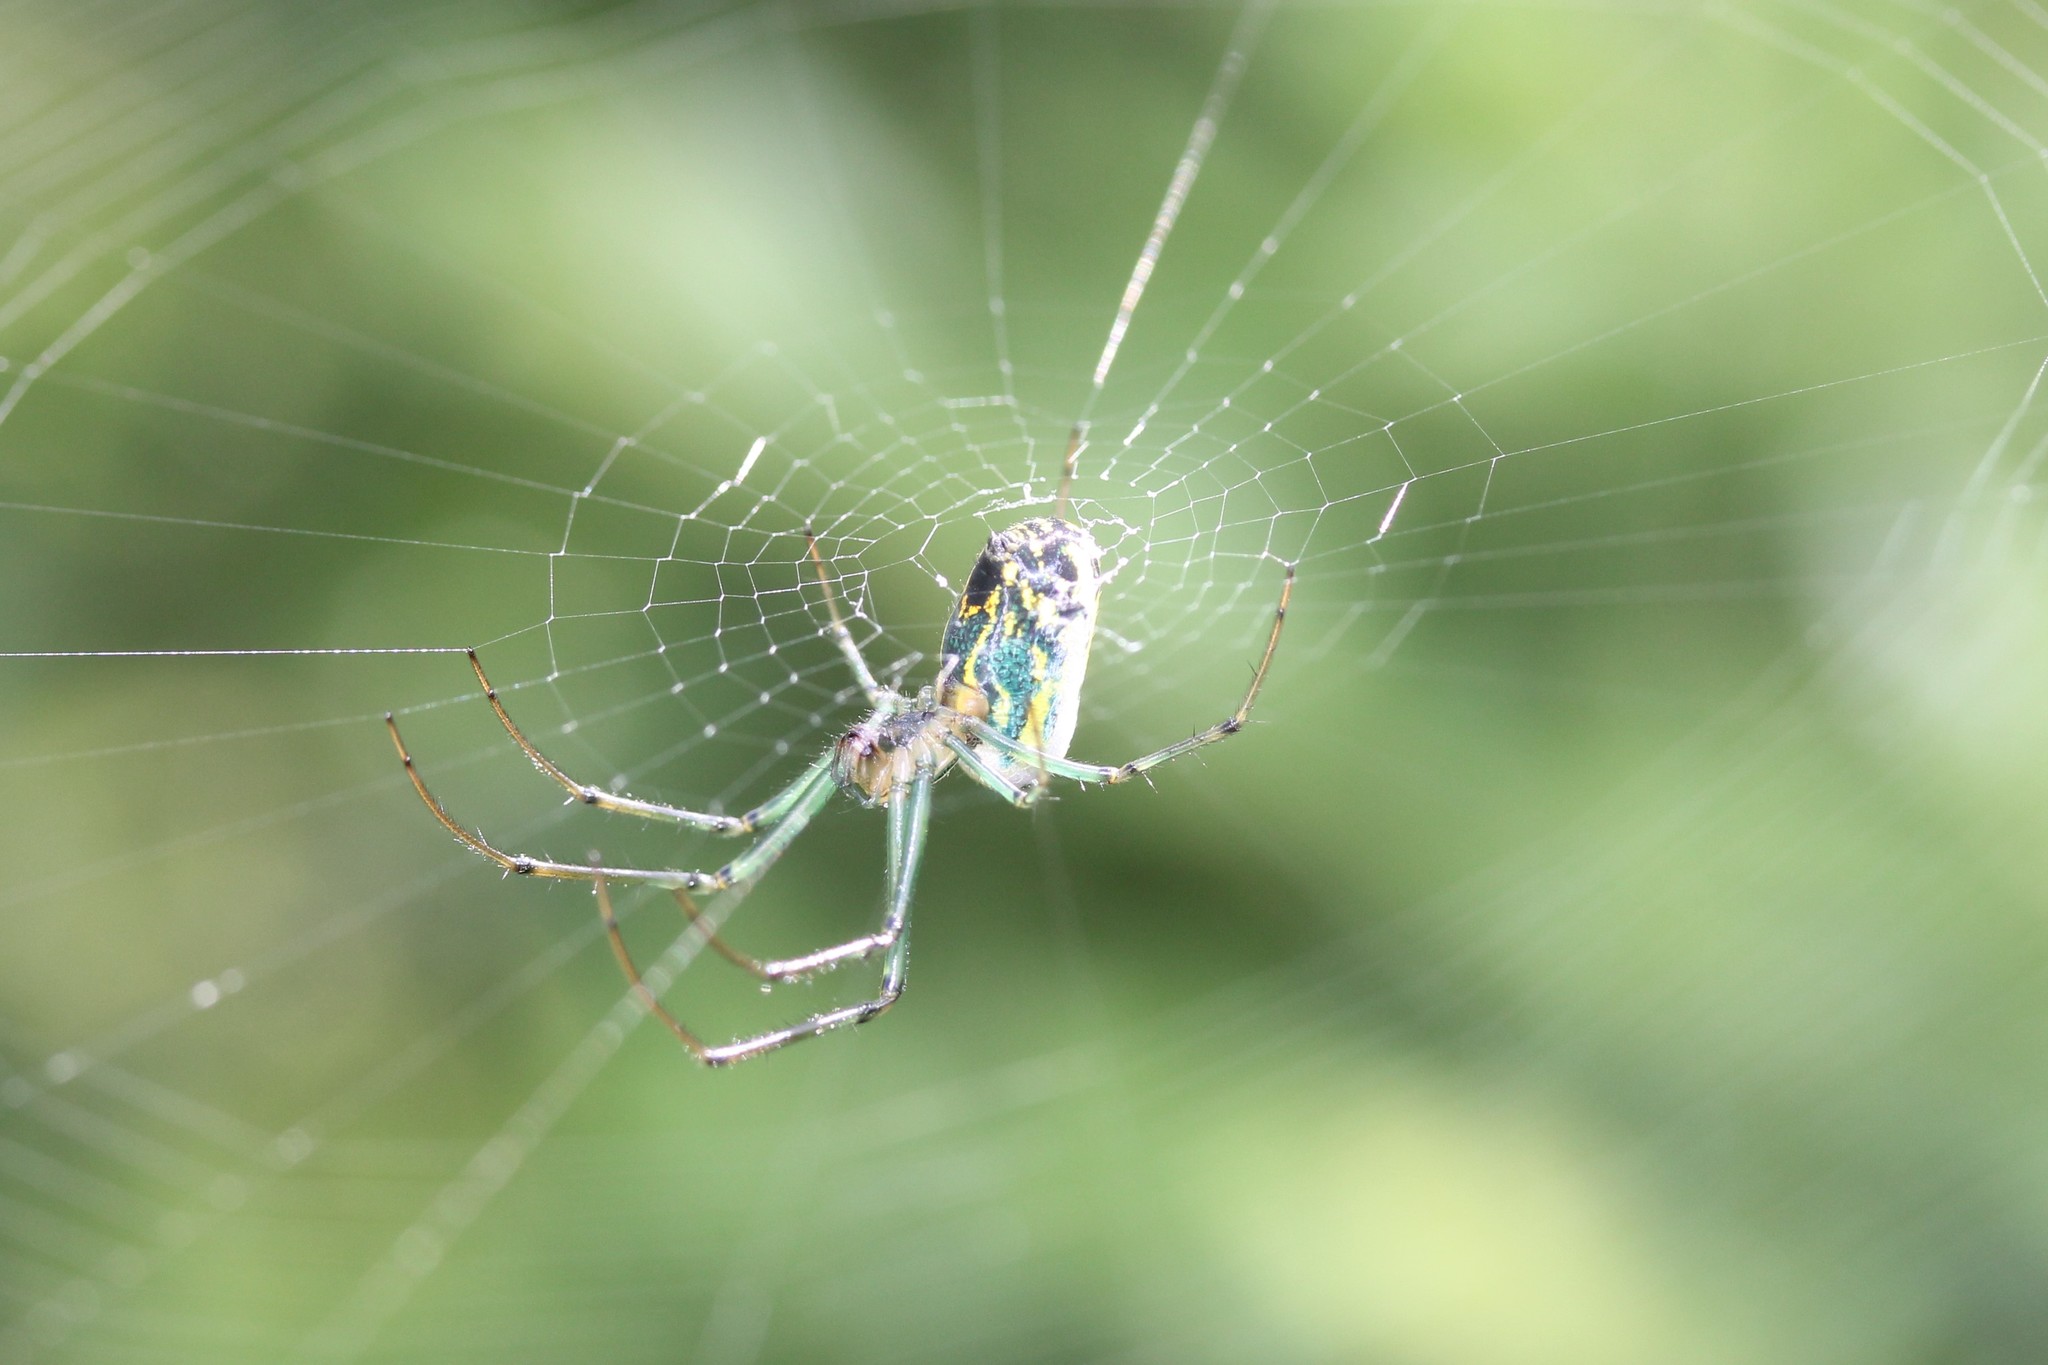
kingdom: Animalia
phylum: Arthropoda
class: Arachnida
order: Araneae
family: Tetragnathidae
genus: Leucauge
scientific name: Leucauge venusta
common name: Longjawed orb weavers
